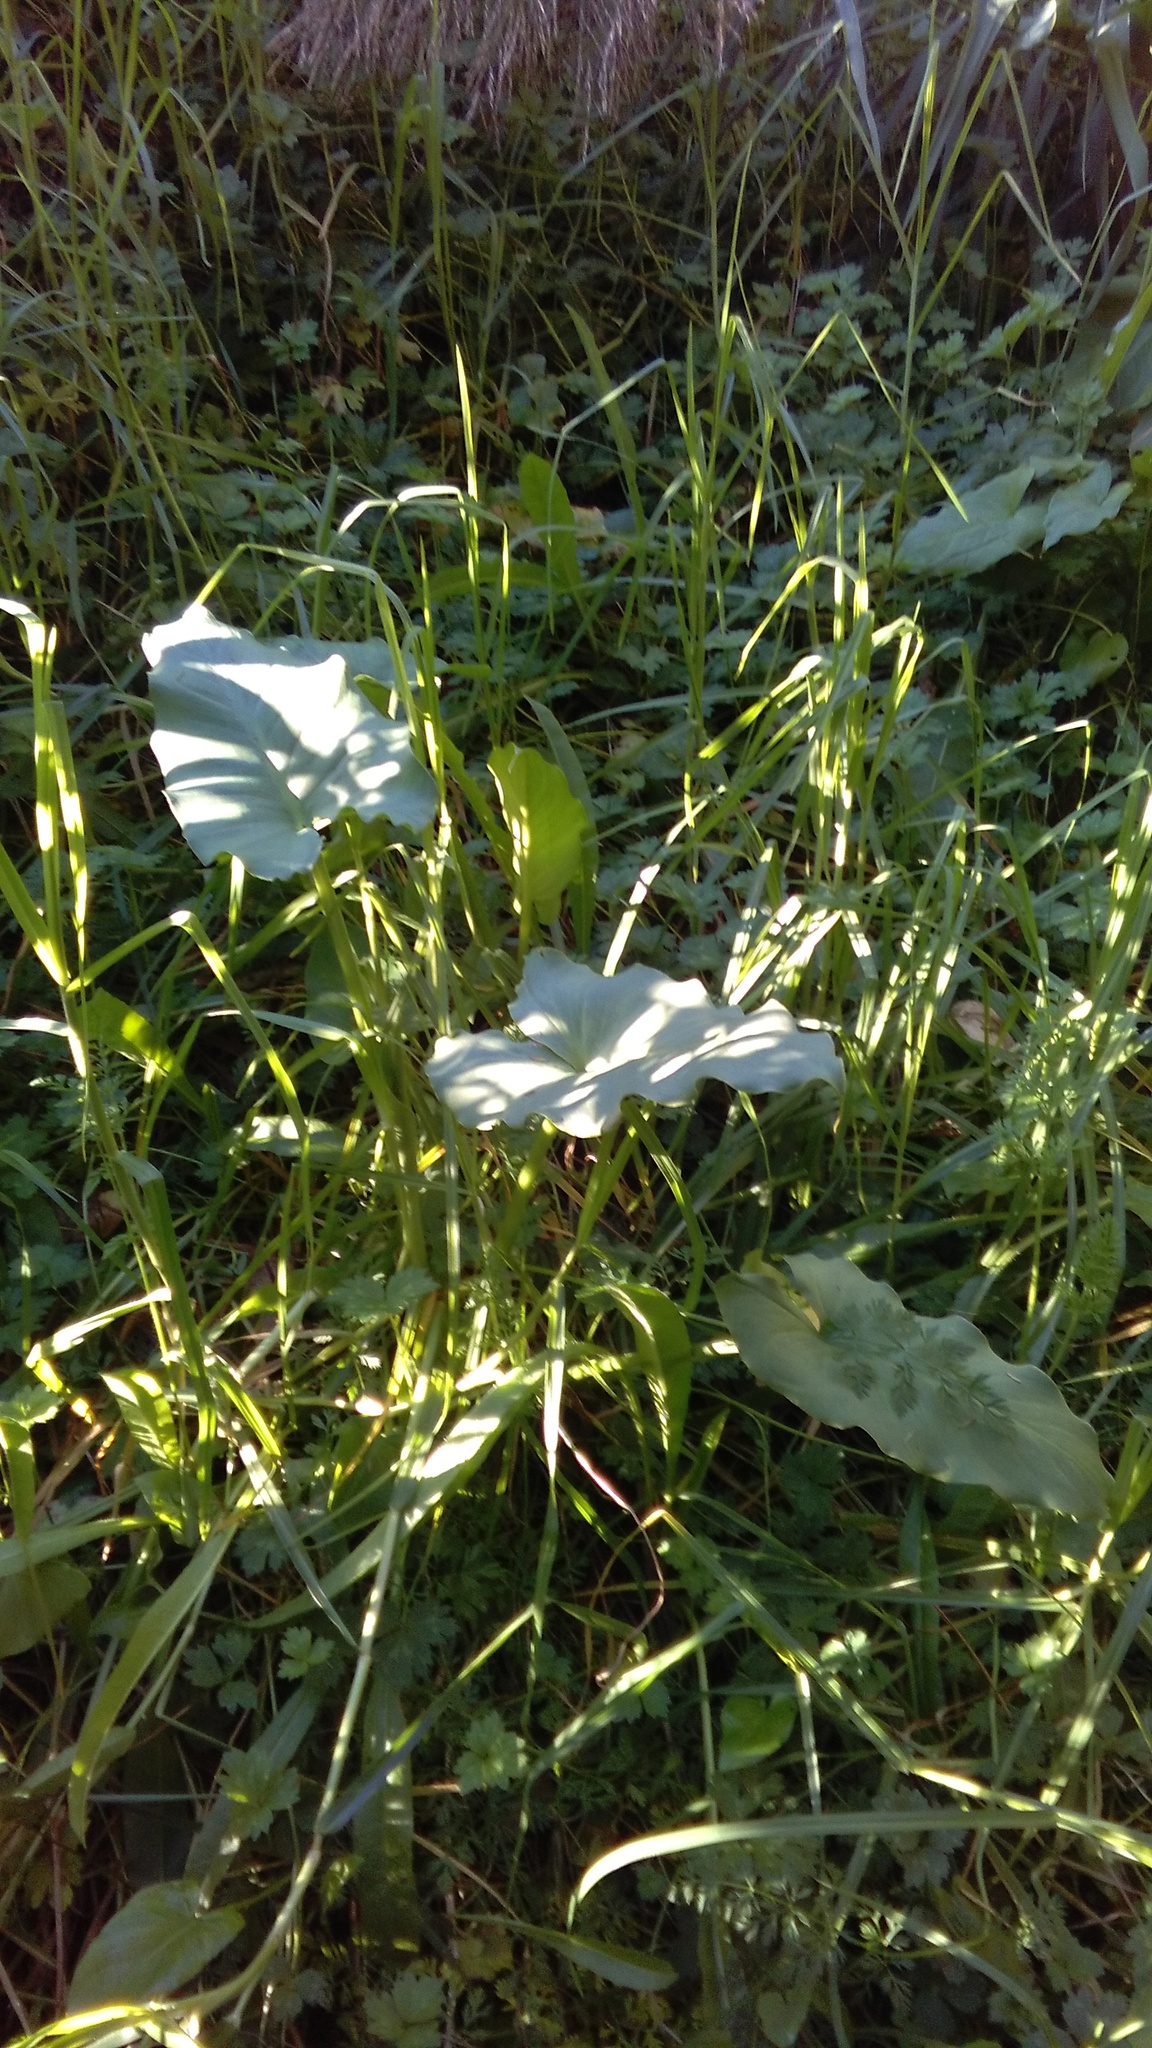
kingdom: Plantae
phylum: Tracheophyta
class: Liliopsida
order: Alismatales
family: Araceae
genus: Zantedeschia
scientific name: Zantedeschia aethiopica
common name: Altar-lily
